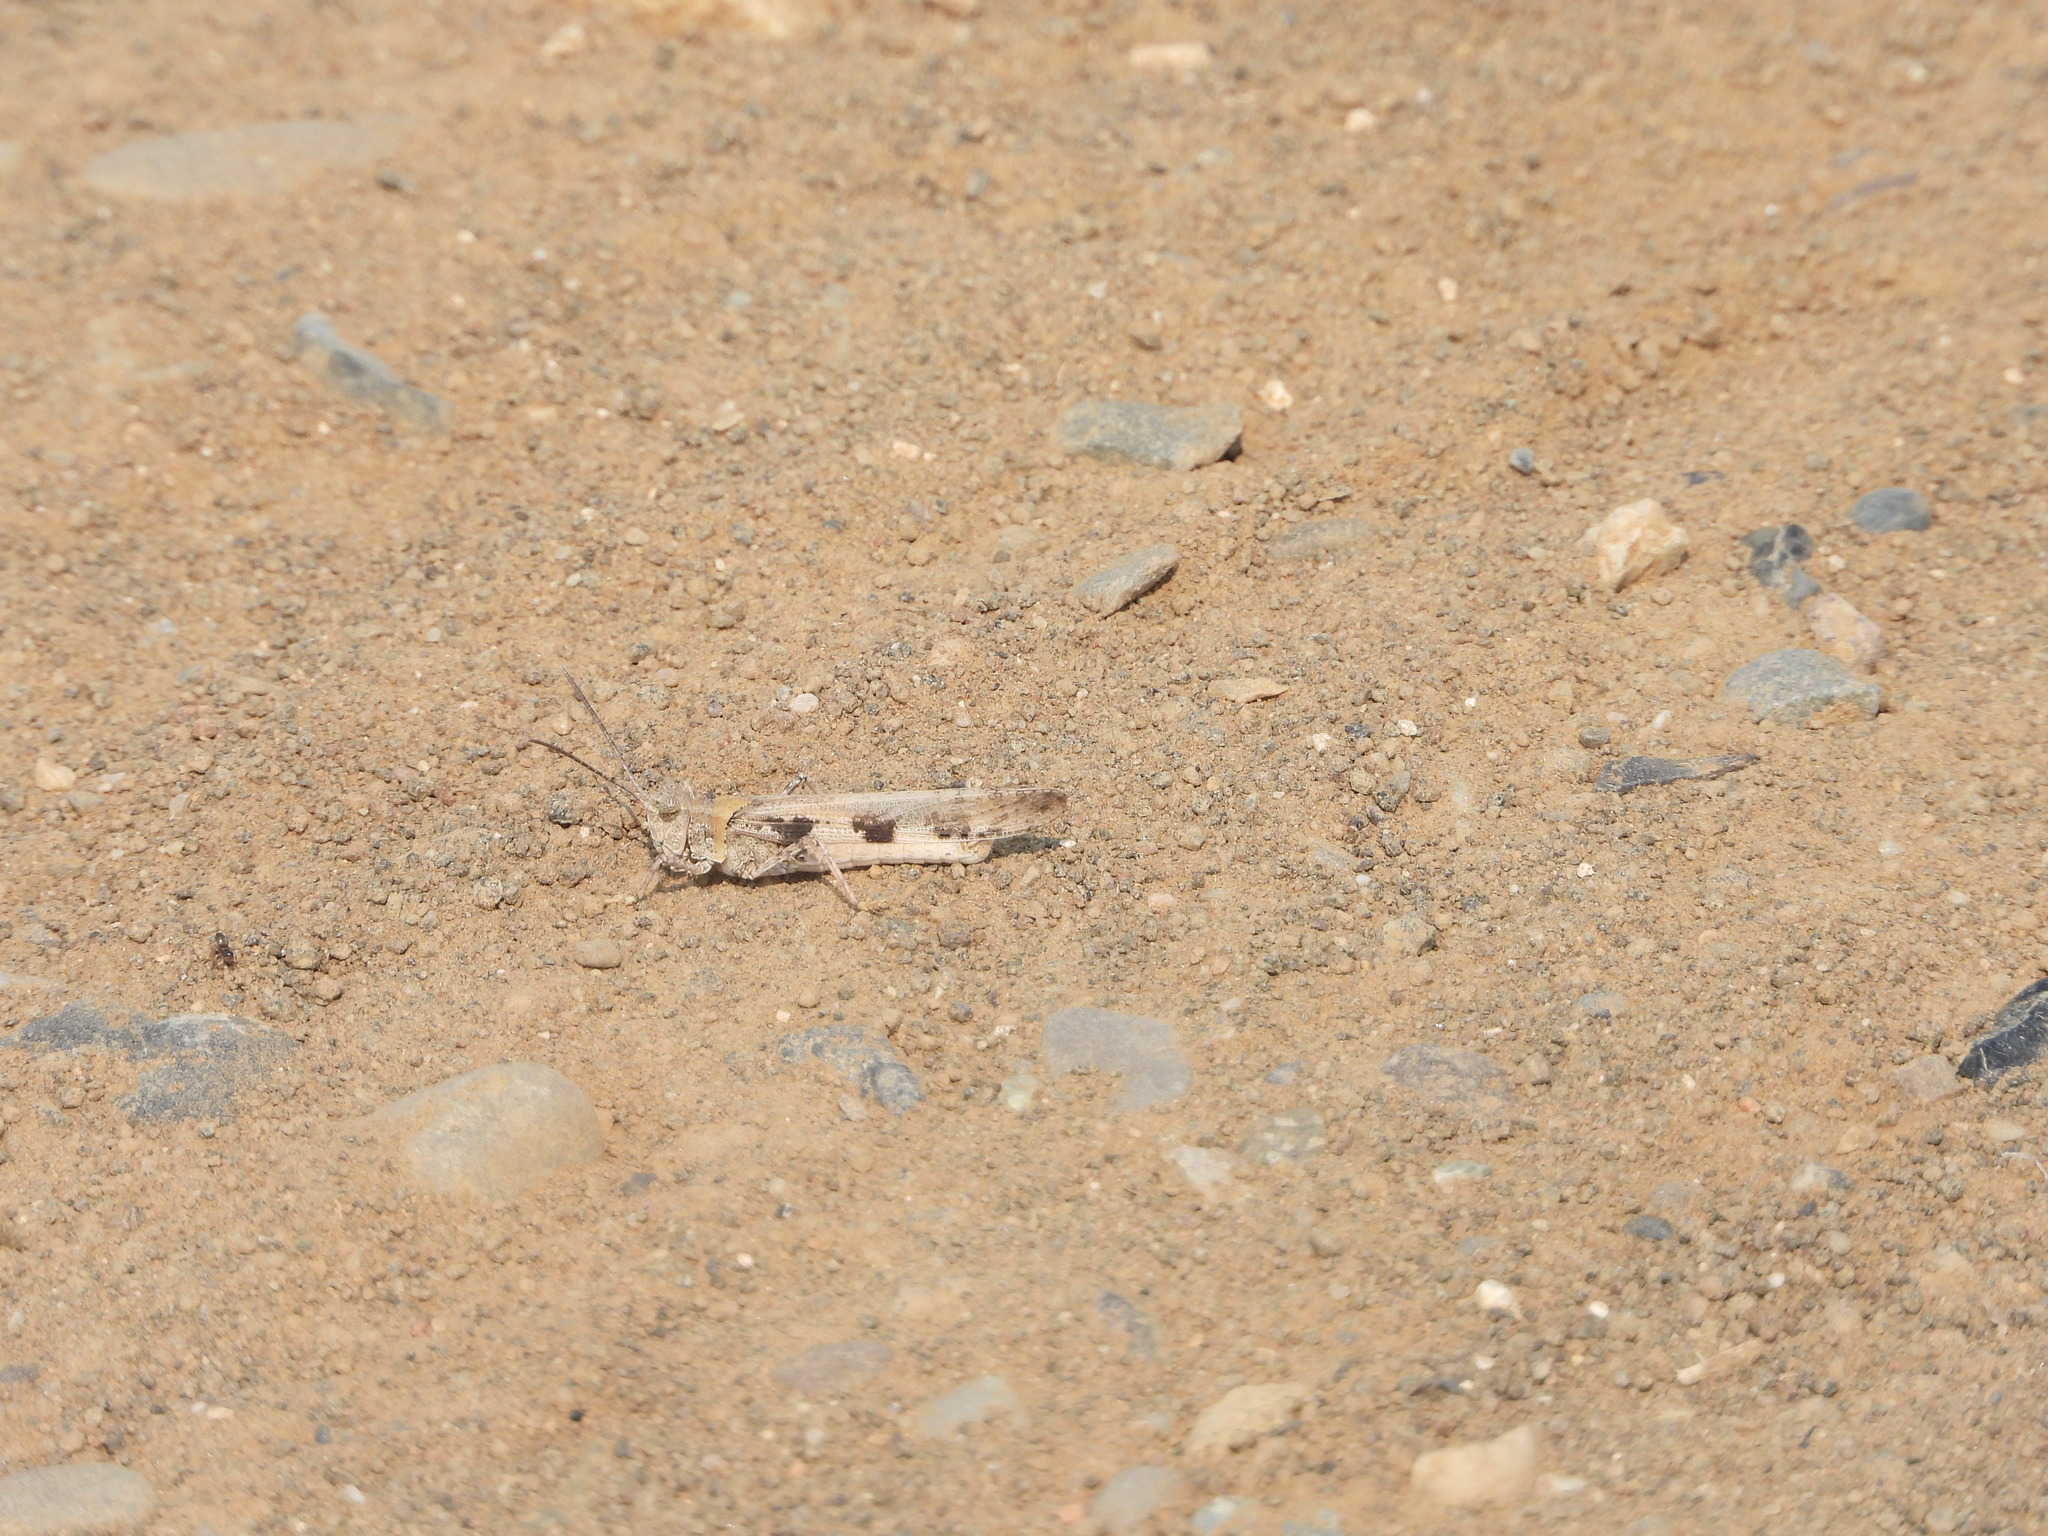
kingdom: Animalia
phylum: Arthropoda
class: Insecta
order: Orthoptera
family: Acrididae
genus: Conozoa
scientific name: Conozoa sulcifrons
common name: Groove-headed grasshopper
